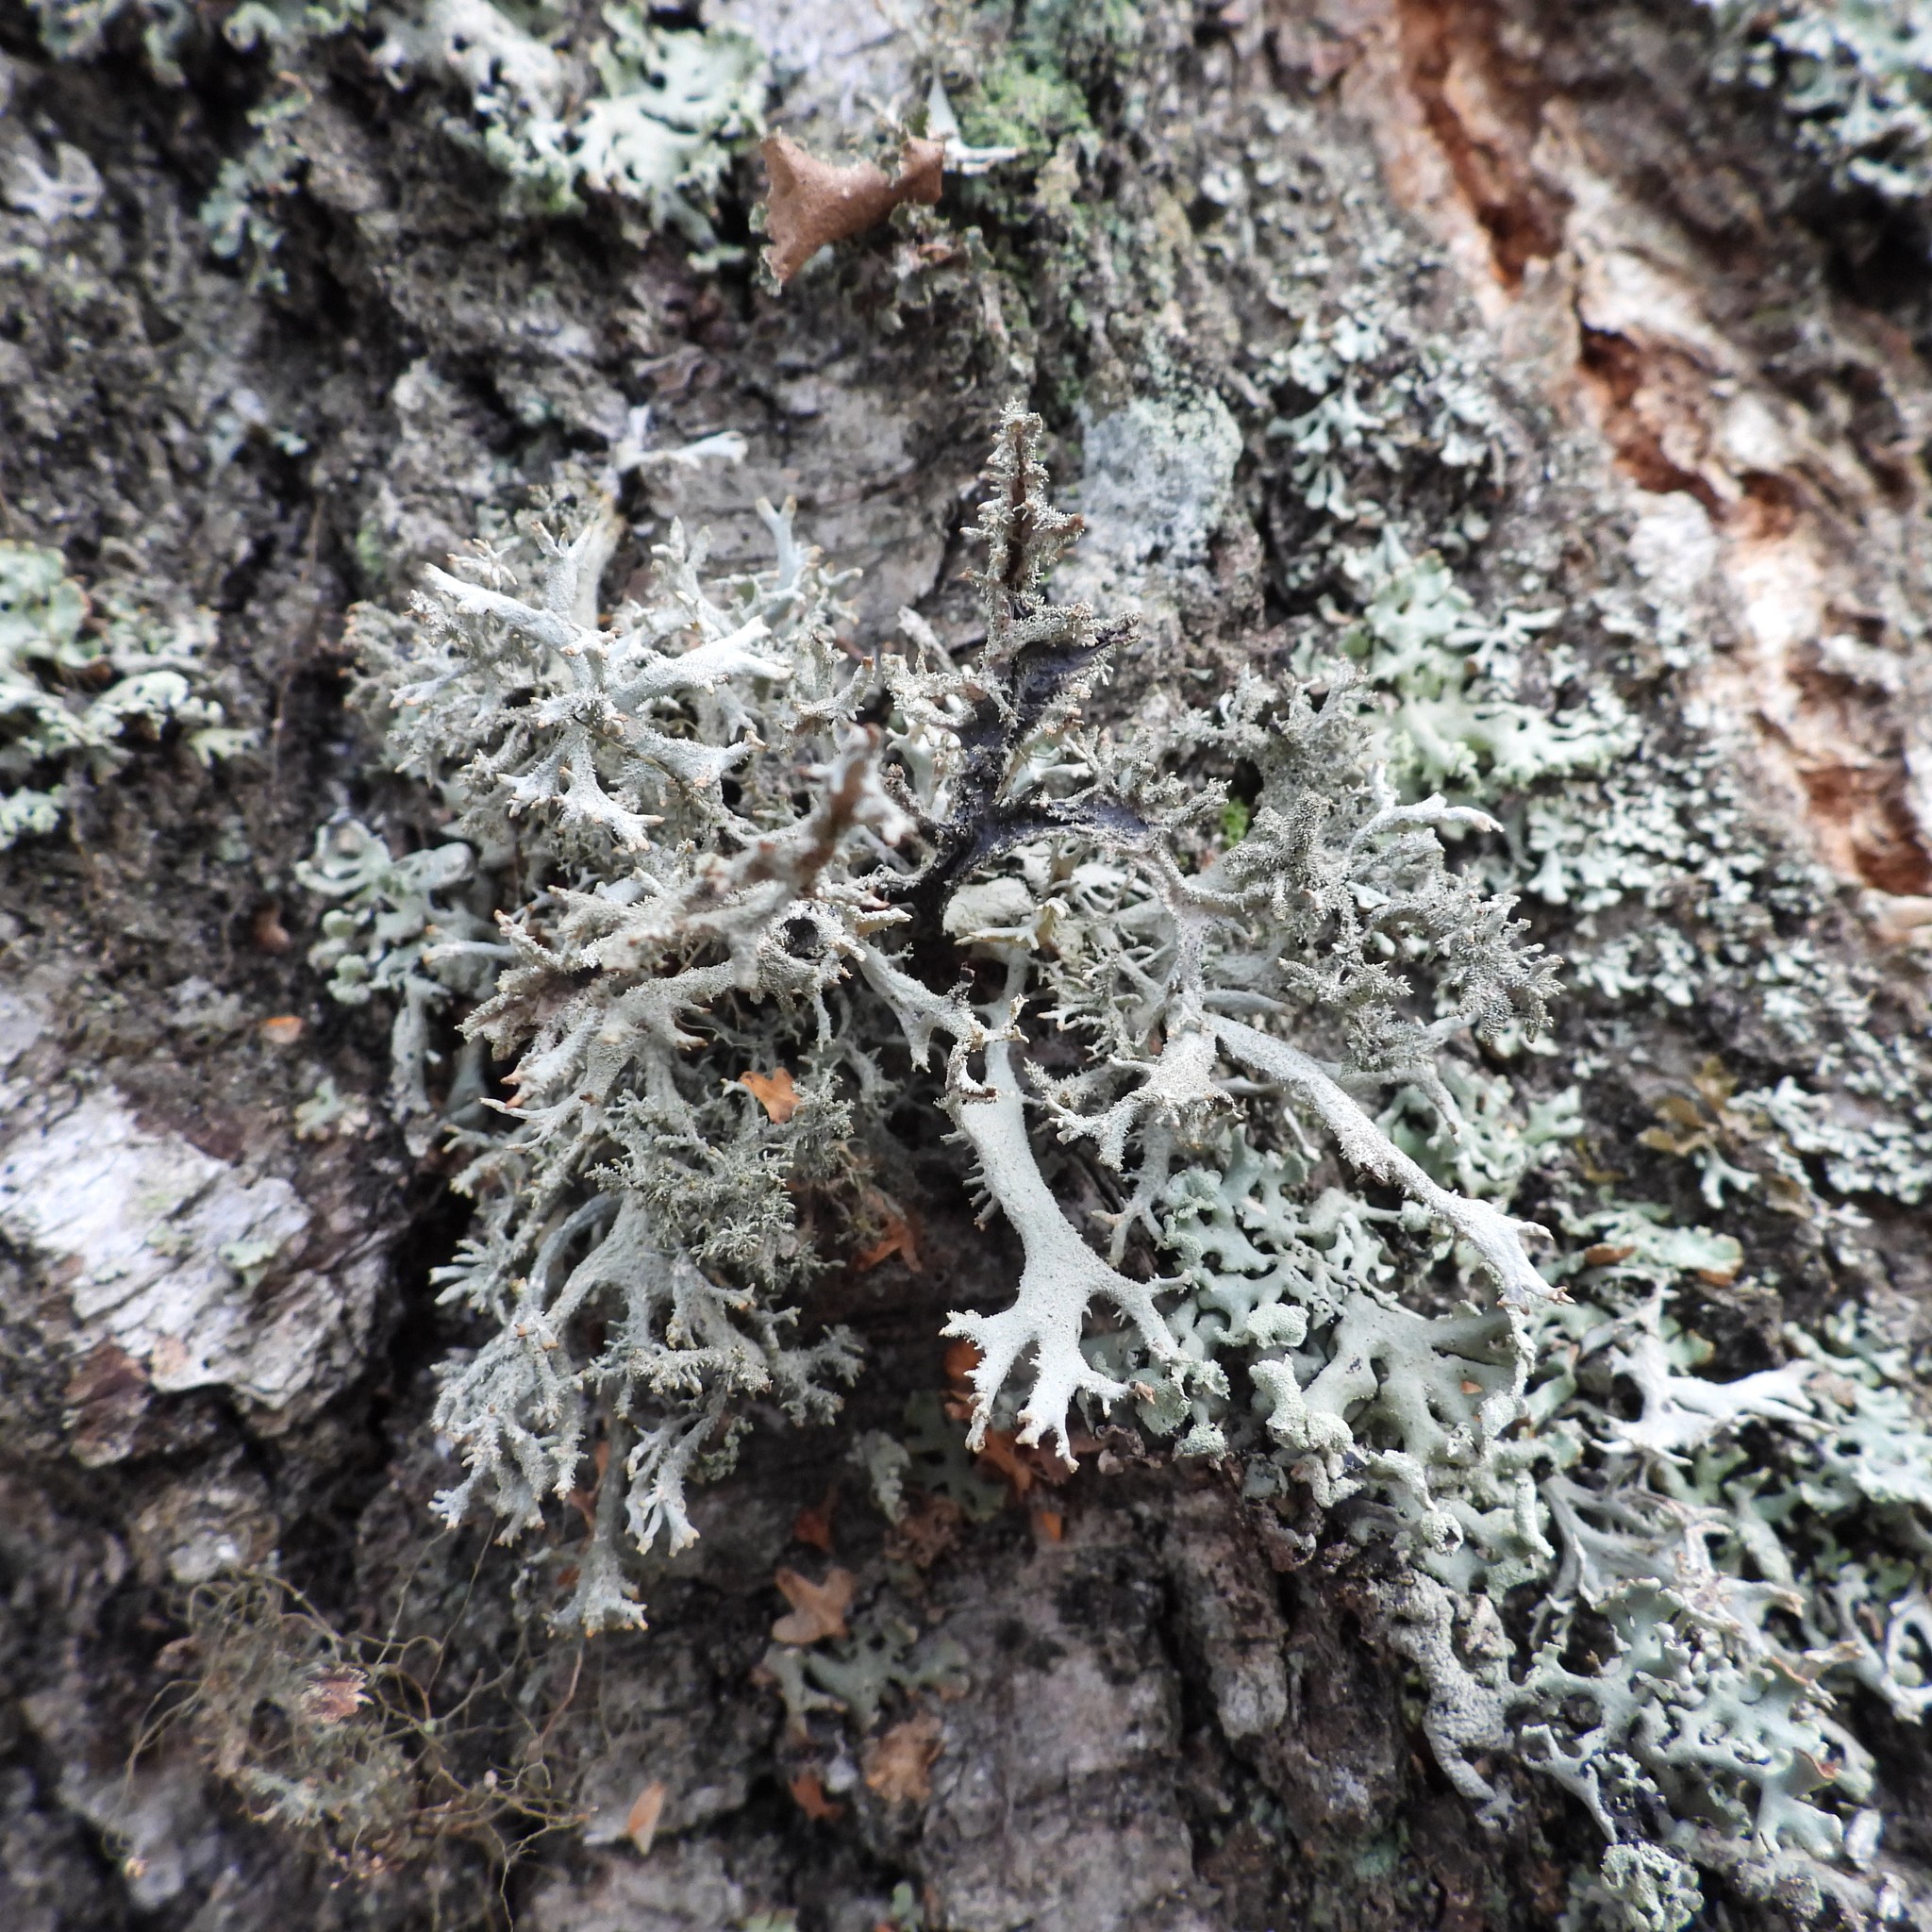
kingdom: Fungi
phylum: Ascomycota
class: Lecanoromycetes
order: Lecanorales
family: Parmeliaceae
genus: Pseudevernia
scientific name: Pseudevernia furfuracea
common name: Tree moss
